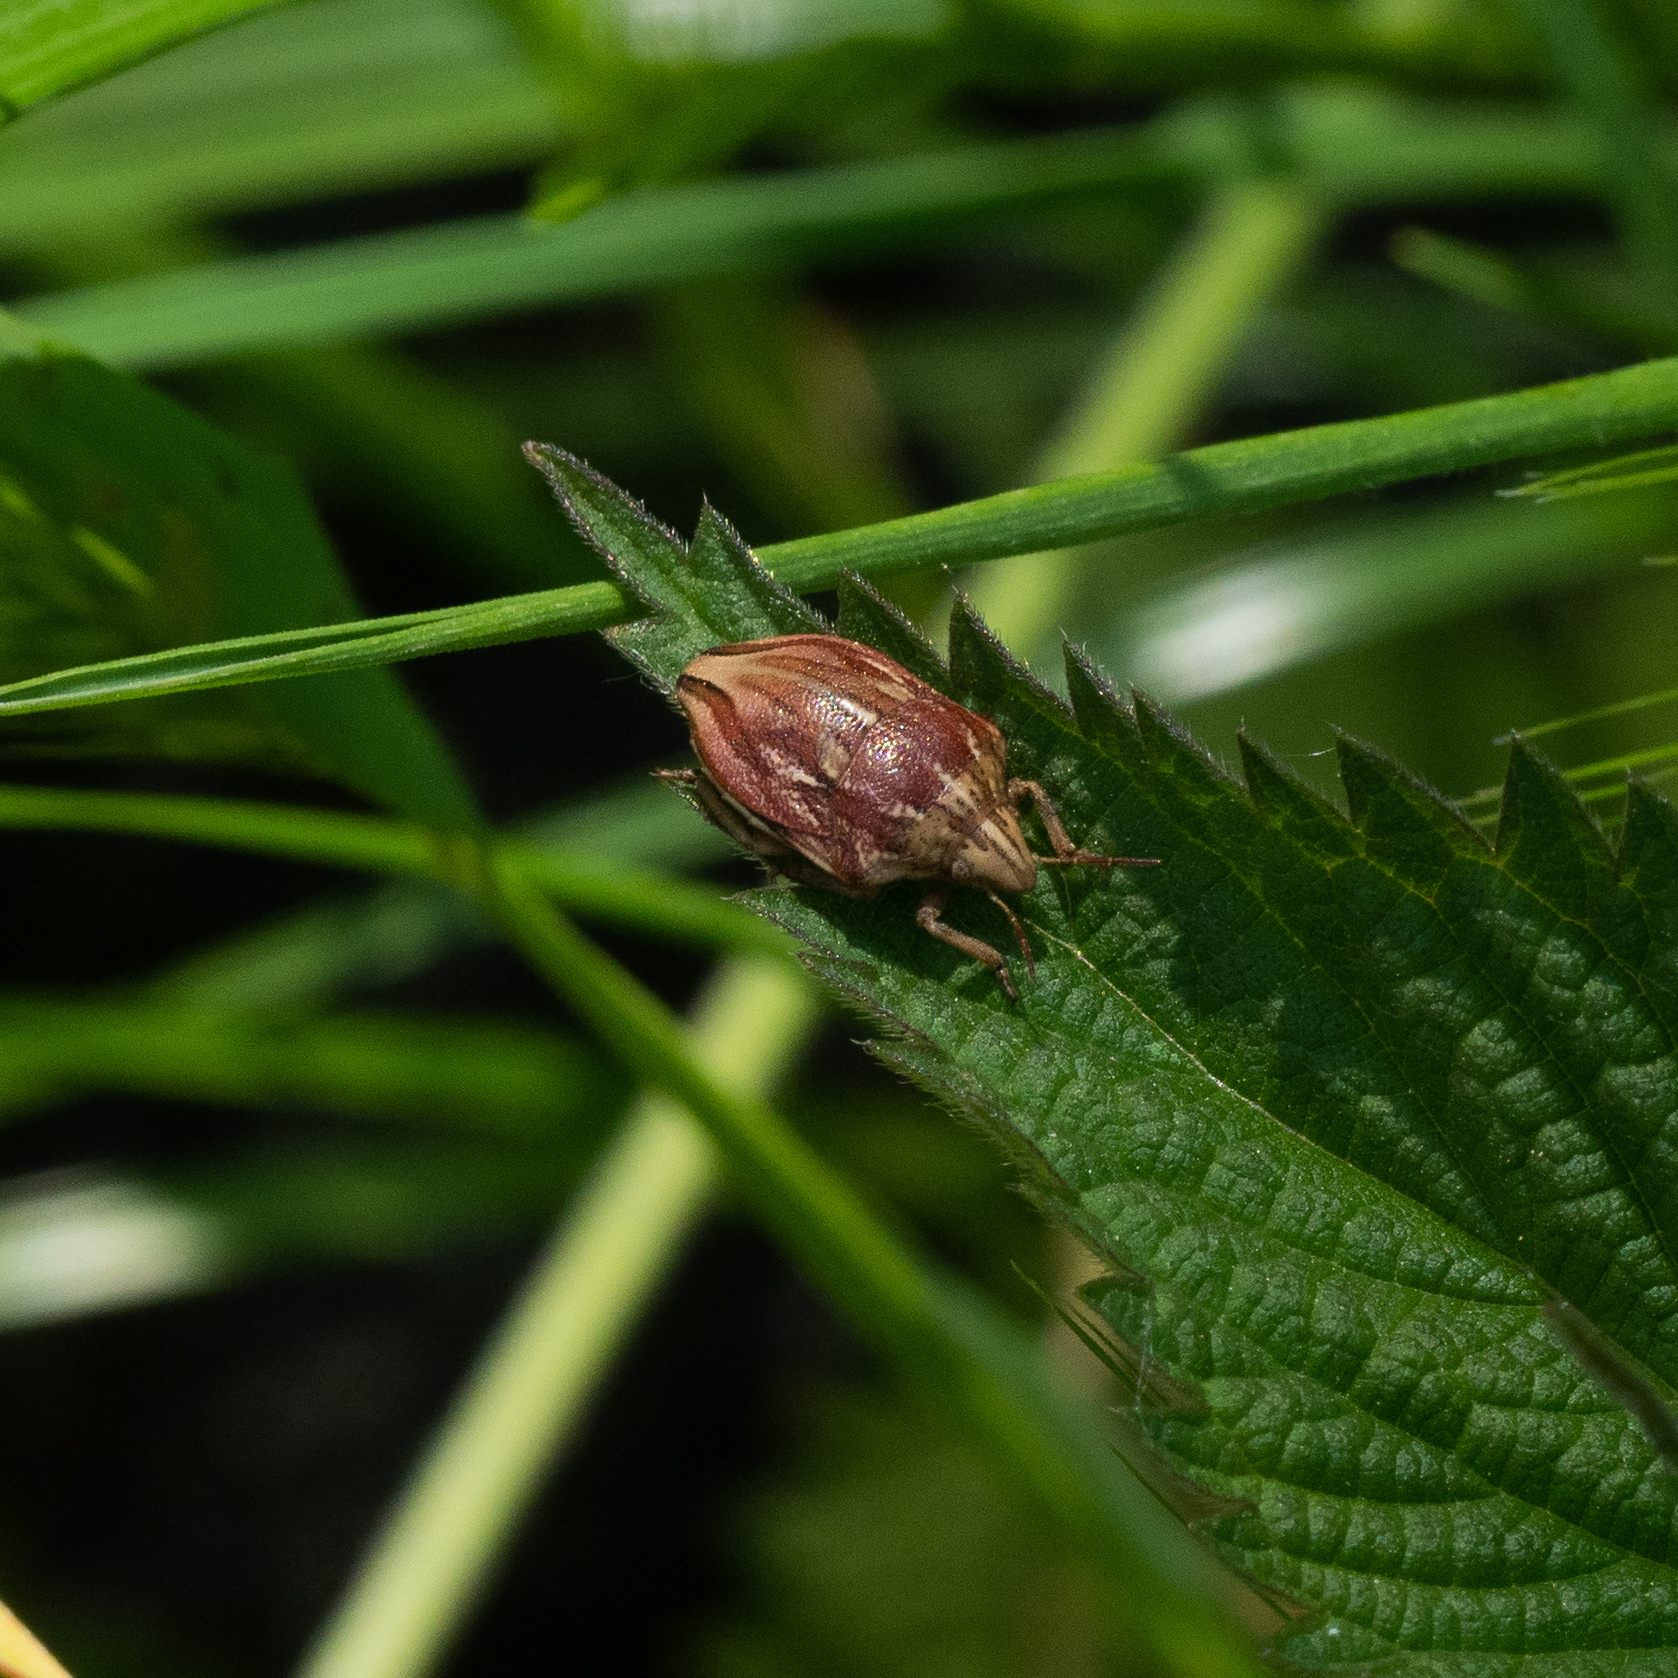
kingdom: Animalia
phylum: Arthropoda
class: Insecta
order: Hemiptera
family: Scutelleridae
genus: Odontotarsus
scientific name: Odontotarsus purpureolineatus
